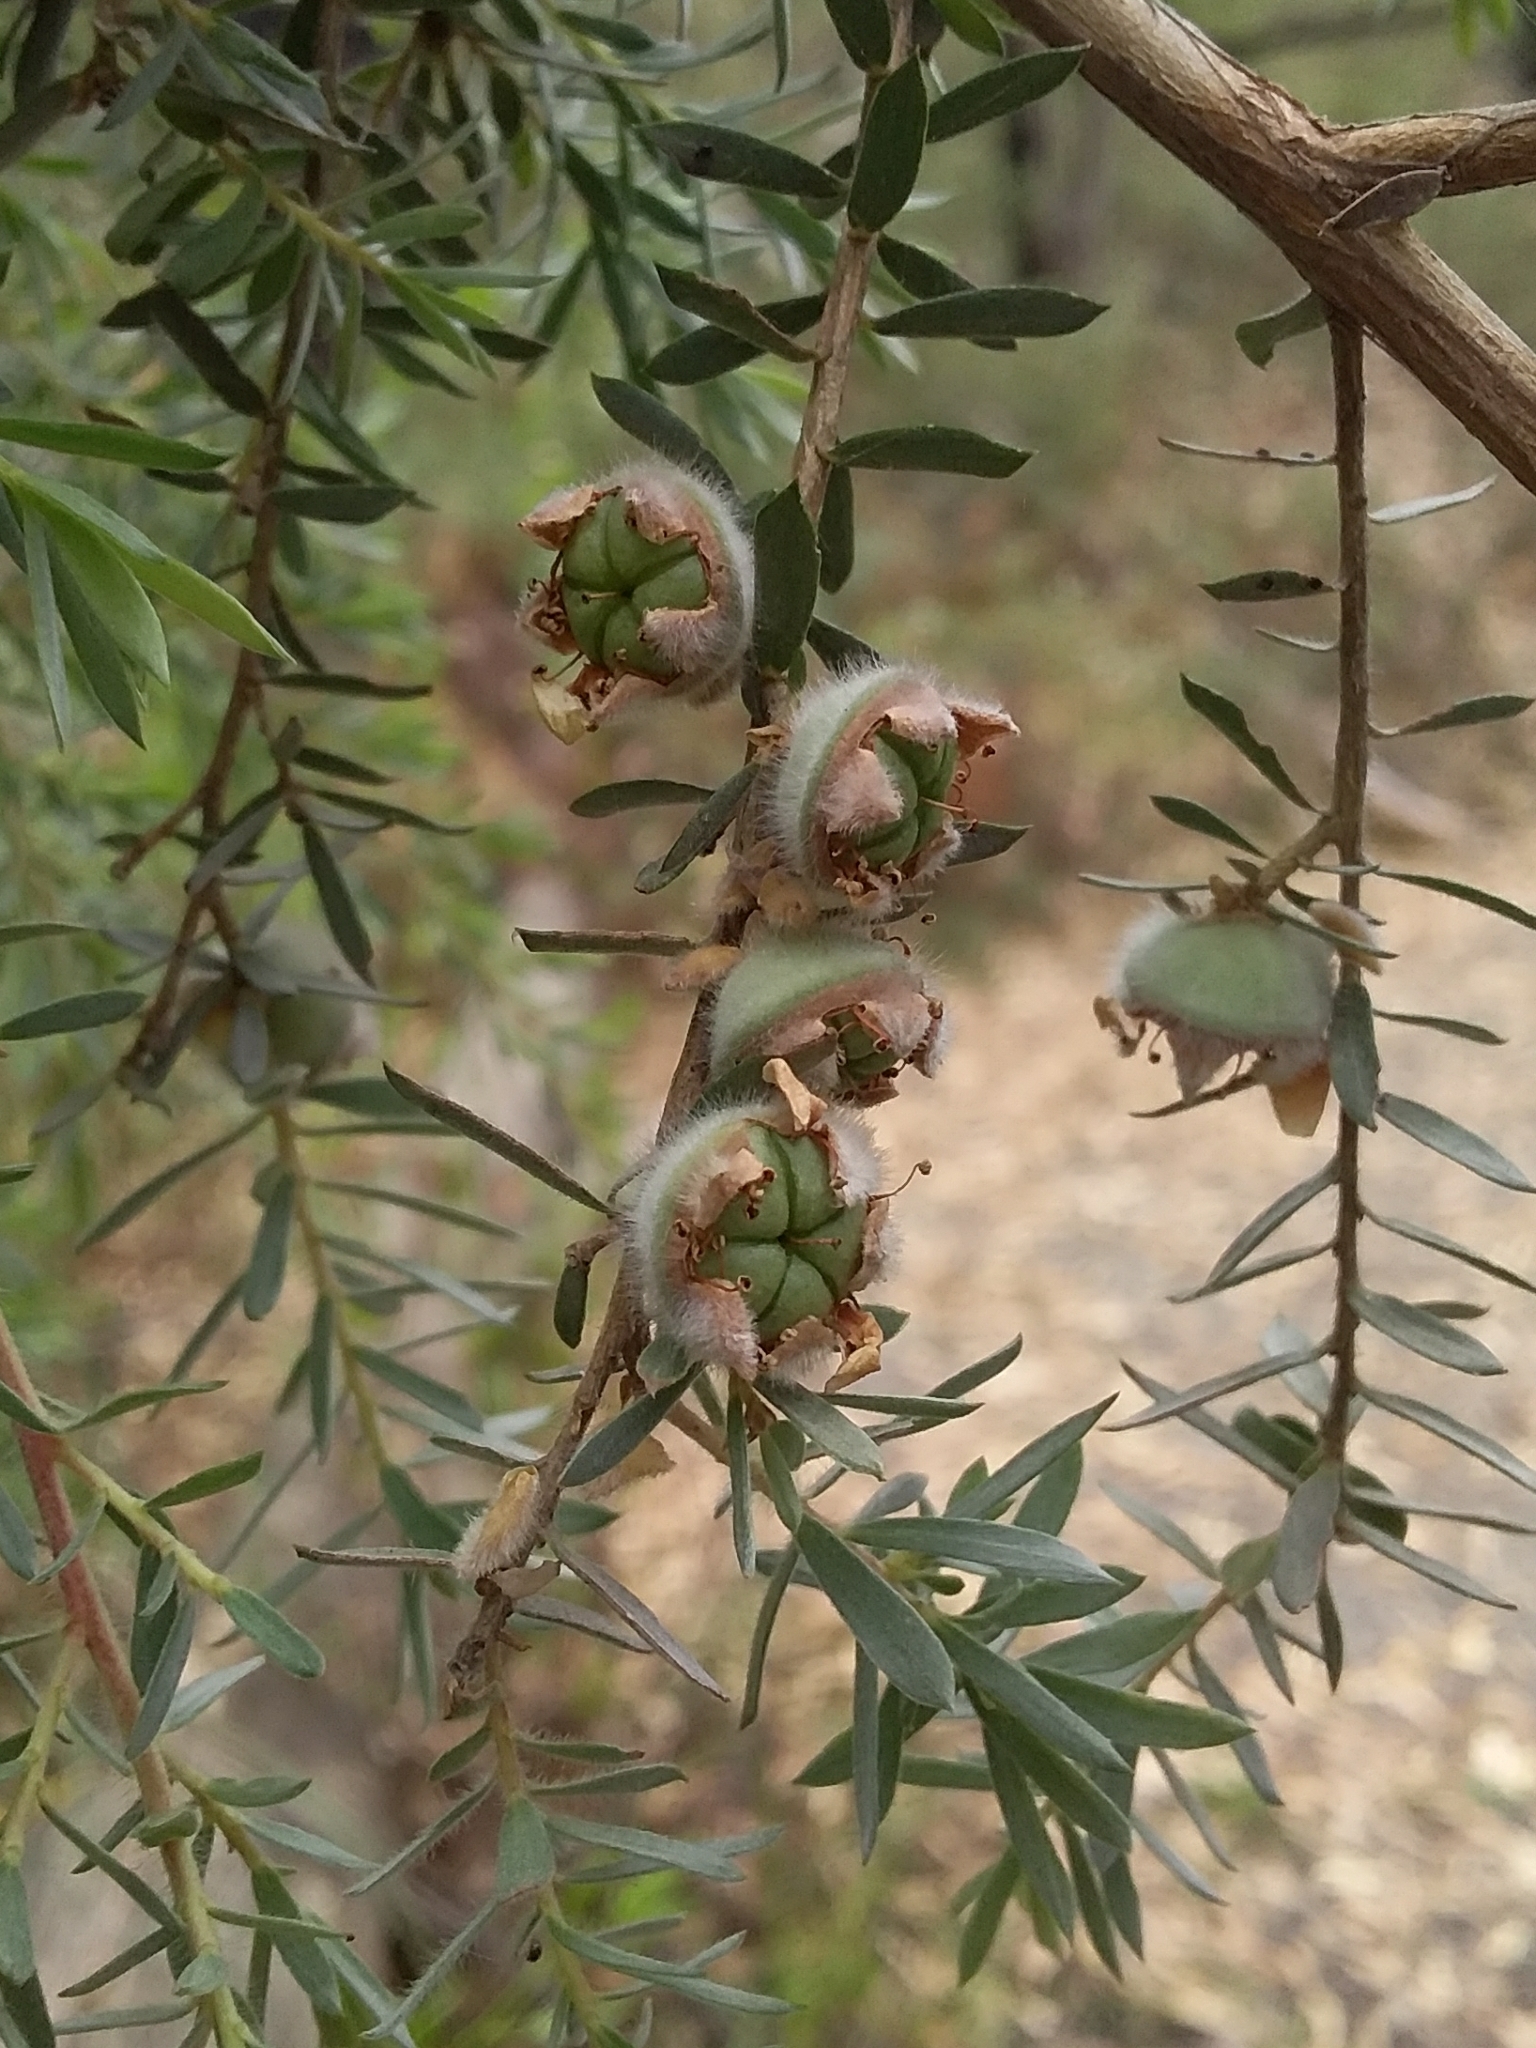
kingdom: Plantae
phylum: Tracheophyta
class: Magnoliopsida
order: Myrtales
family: Myrtaceae
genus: Leptospermum
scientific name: Leptospermum lanigerum
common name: Woolly tea-tree
